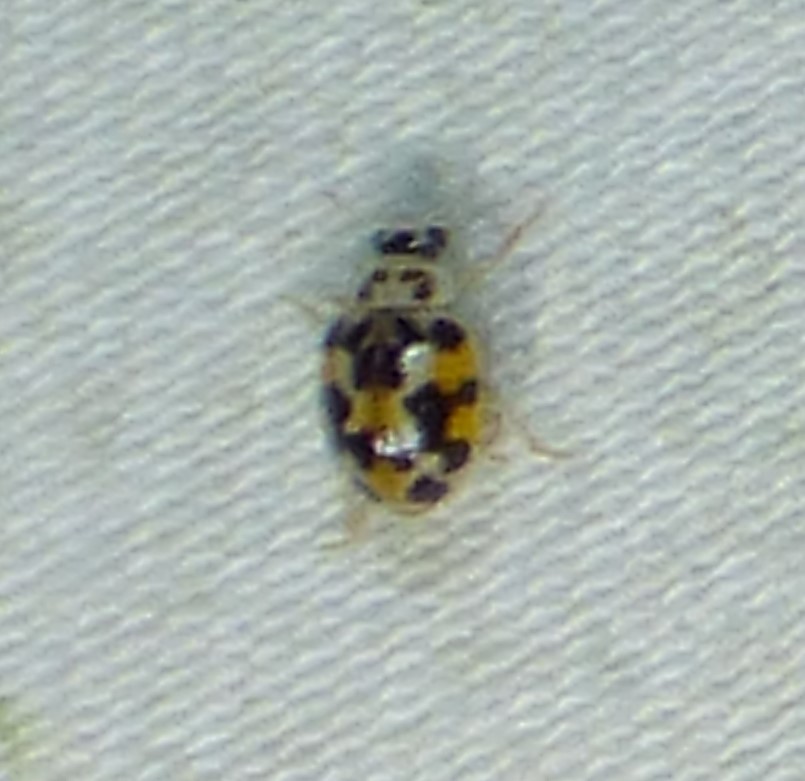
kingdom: Animalia
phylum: Arthropoda
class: Insecta
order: Coleoptera
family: Coccinellidae
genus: Psyllobora
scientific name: Psyllobora vigintimaculata
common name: Ladybird beetle
